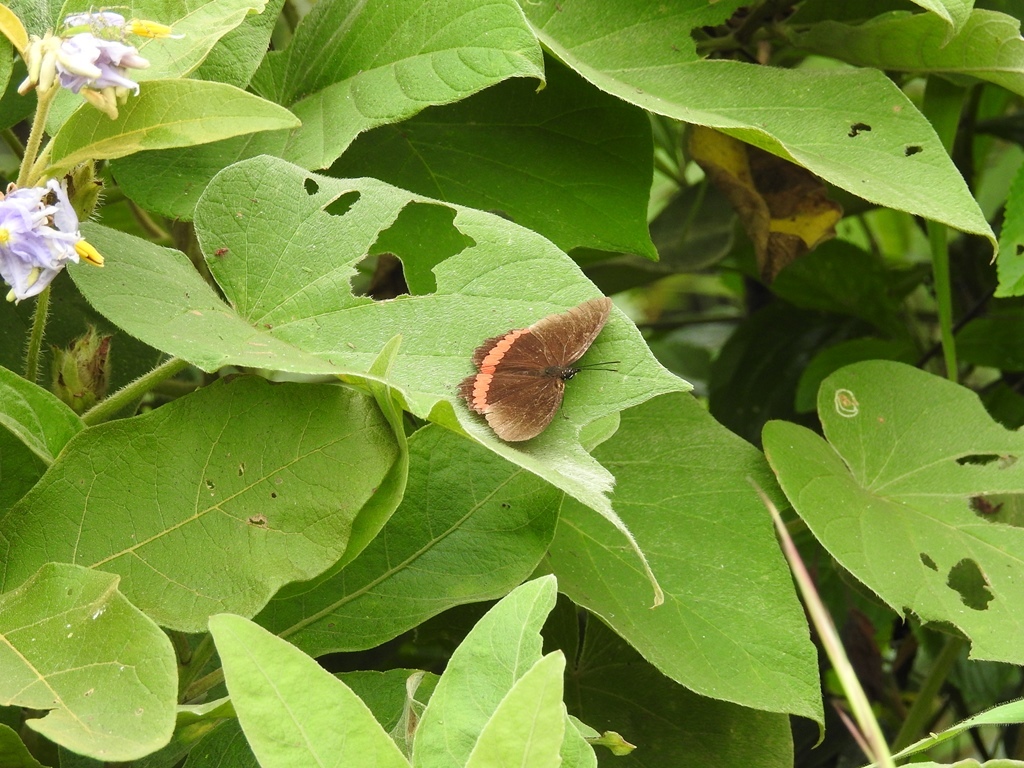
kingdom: Animalia
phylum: Arthropoda
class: Insecta
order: Lepidoptera
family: Nymphalidae
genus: Biblis
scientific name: Biblis aganisa
